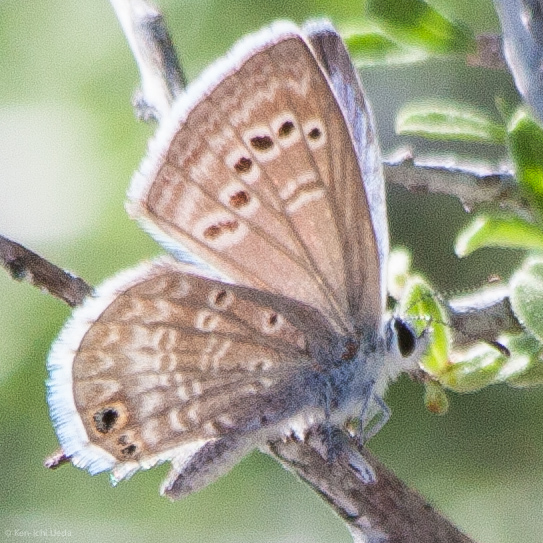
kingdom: Animalia
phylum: Arthropoda
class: Insecta
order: Lepidoptera
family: Lycaenidae
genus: Echinargus
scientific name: Echinargus isola
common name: Reakirt's blue
